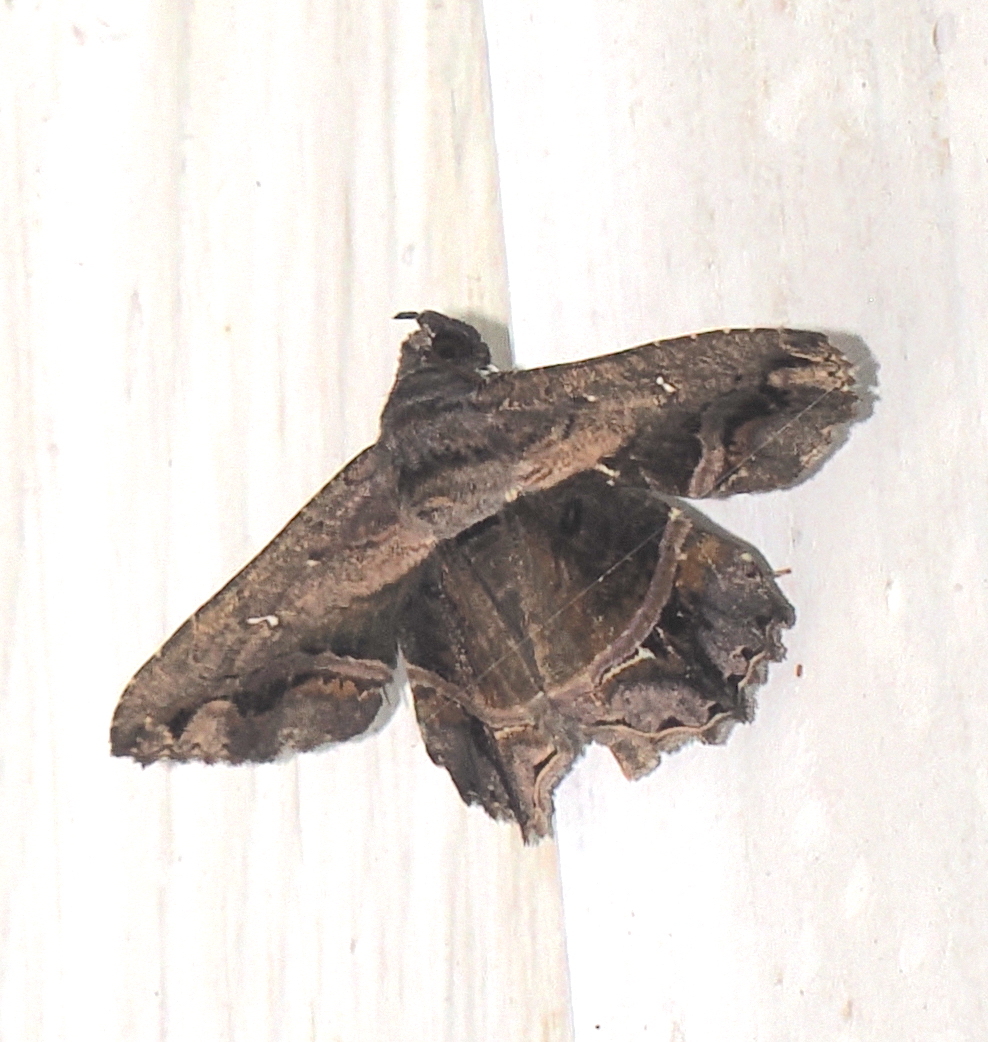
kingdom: Animalia
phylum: Arthropoda
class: Insecta
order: Lepidoptera
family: Erebidae
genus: Helia
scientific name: Helia argentipes
